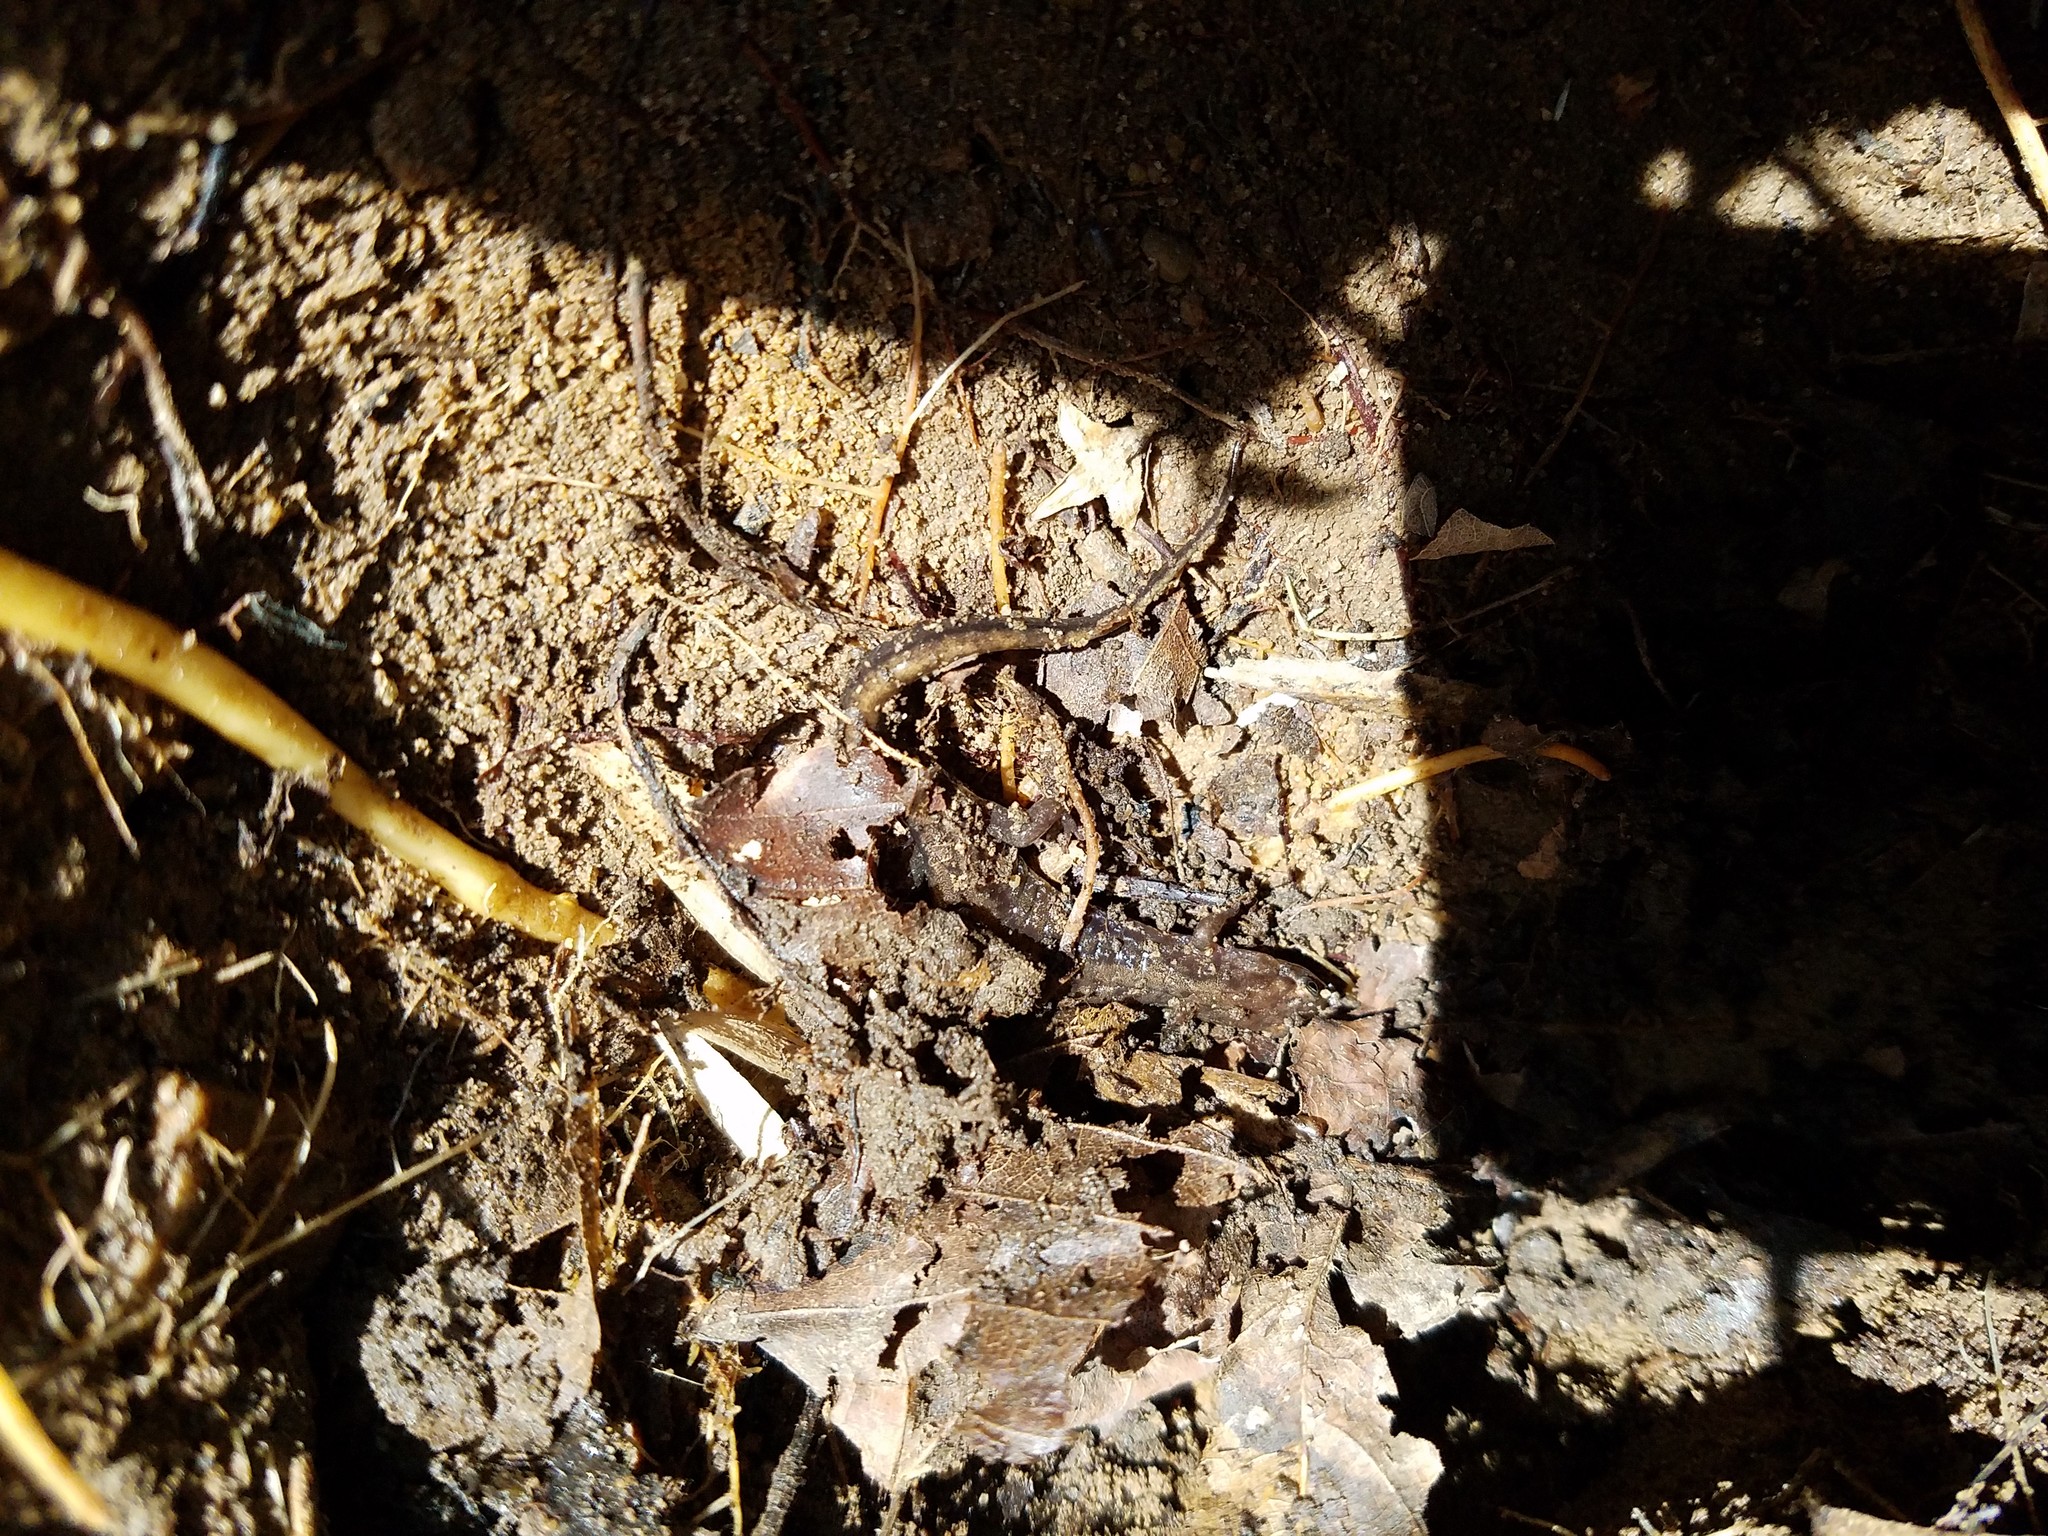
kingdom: Animalia
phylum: Chordata
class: Amphibia
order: Caudata
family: Plethodontidae
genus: Desmognathus
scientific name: Desmognathus ochrophaeus
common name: Allegheny mountain dusky salamander
